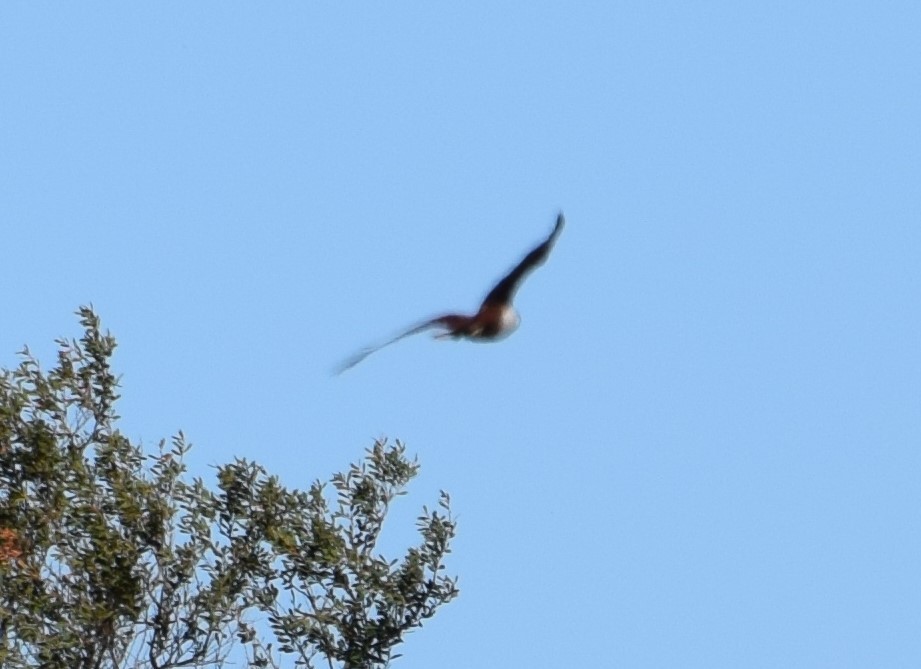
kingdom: Animalia
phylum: Chordata
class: Aves
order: Accipitriformes
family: Accipitridae
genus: Haliastur
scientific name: Haliastur indus
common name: Brahminy kite
